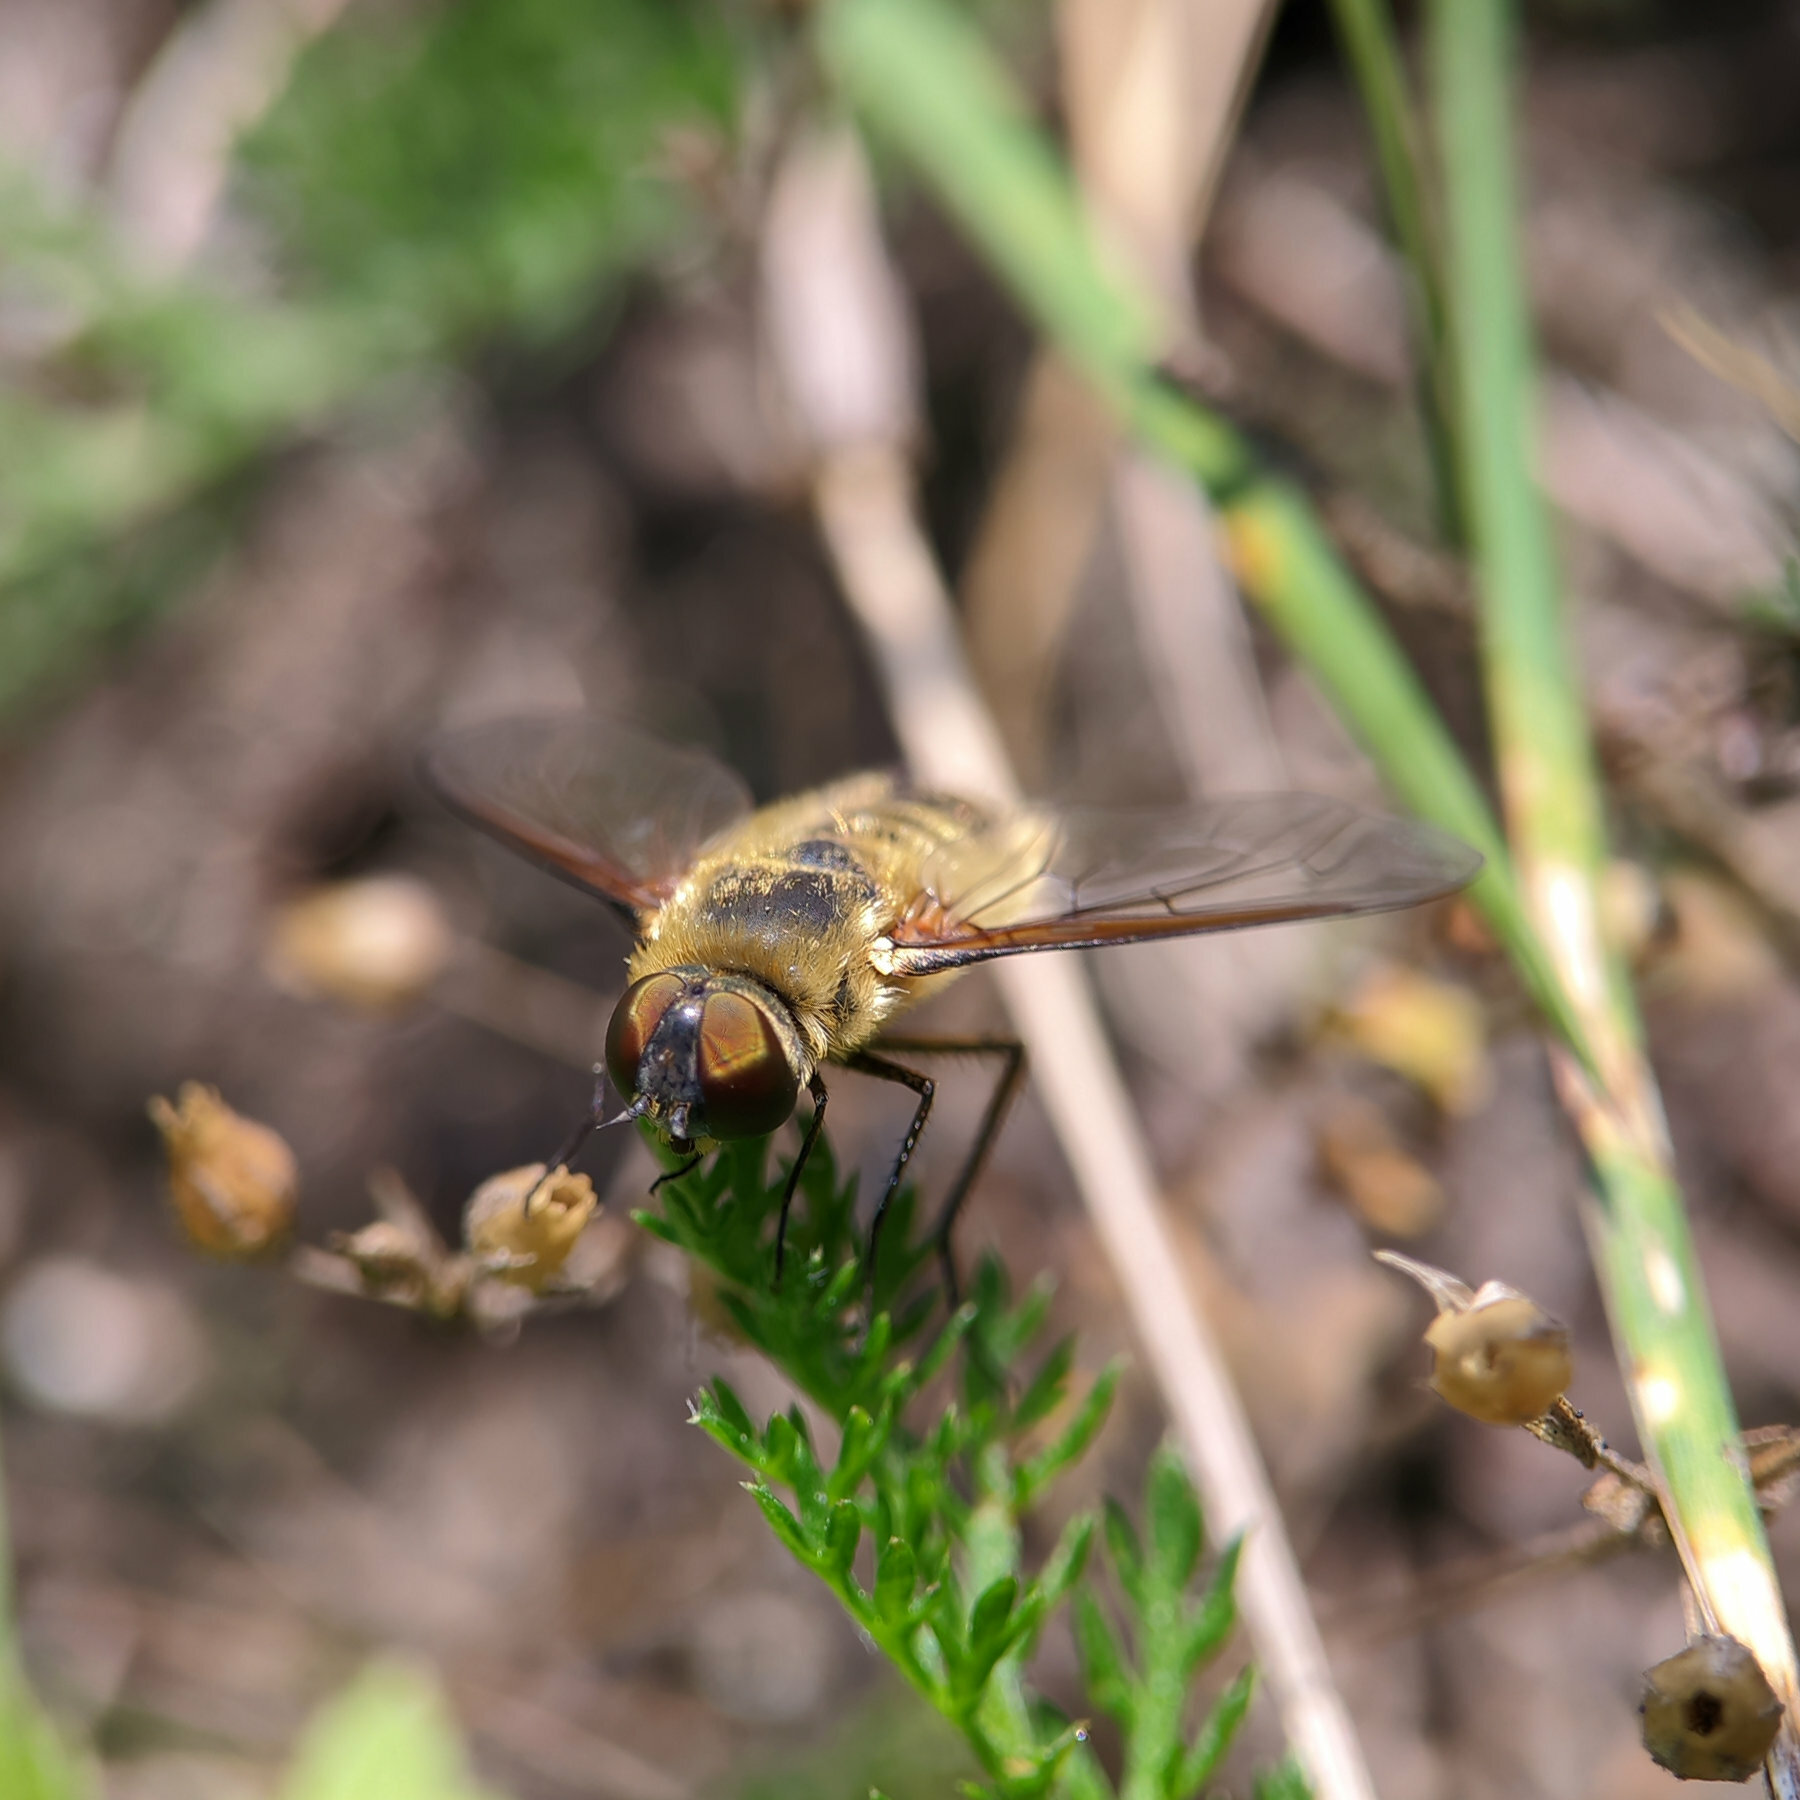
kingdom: Animalia
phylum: Arthropoda
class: Insecta
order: Diptera
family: Bombyliidae
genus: Villa
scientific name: Villa hottentotta
